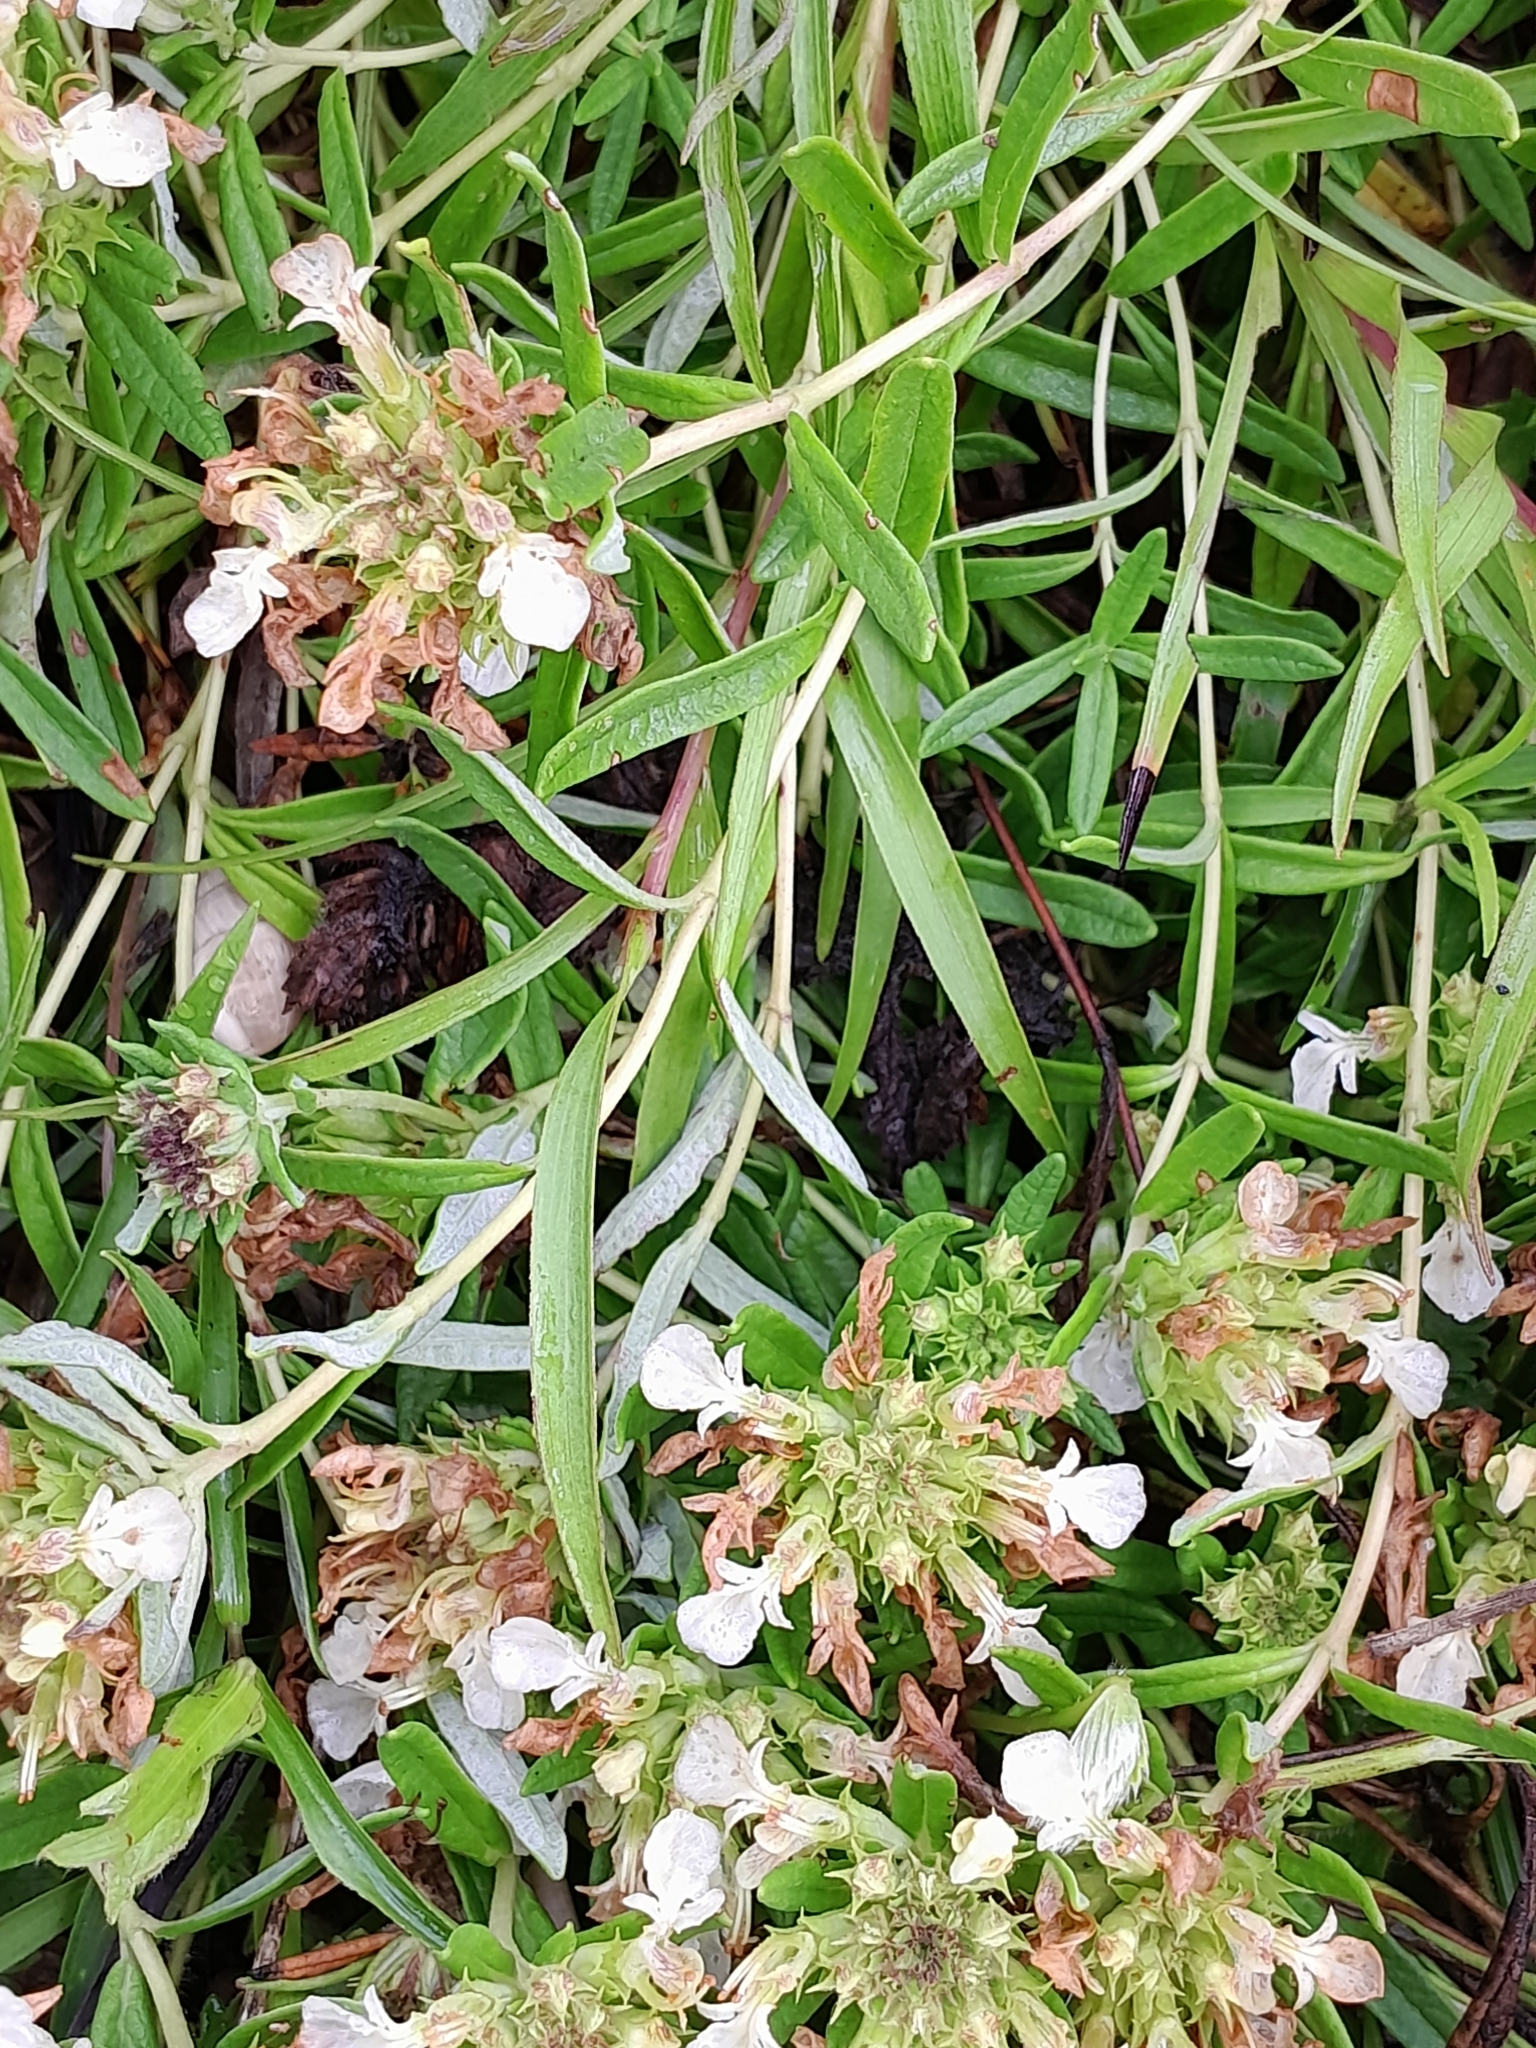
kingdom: Plantae
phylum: Tracheophyta
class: Magnoliopsida
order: Lamiales
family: Lamiaceae
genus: Teucrium
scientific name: Teucrium montanum
